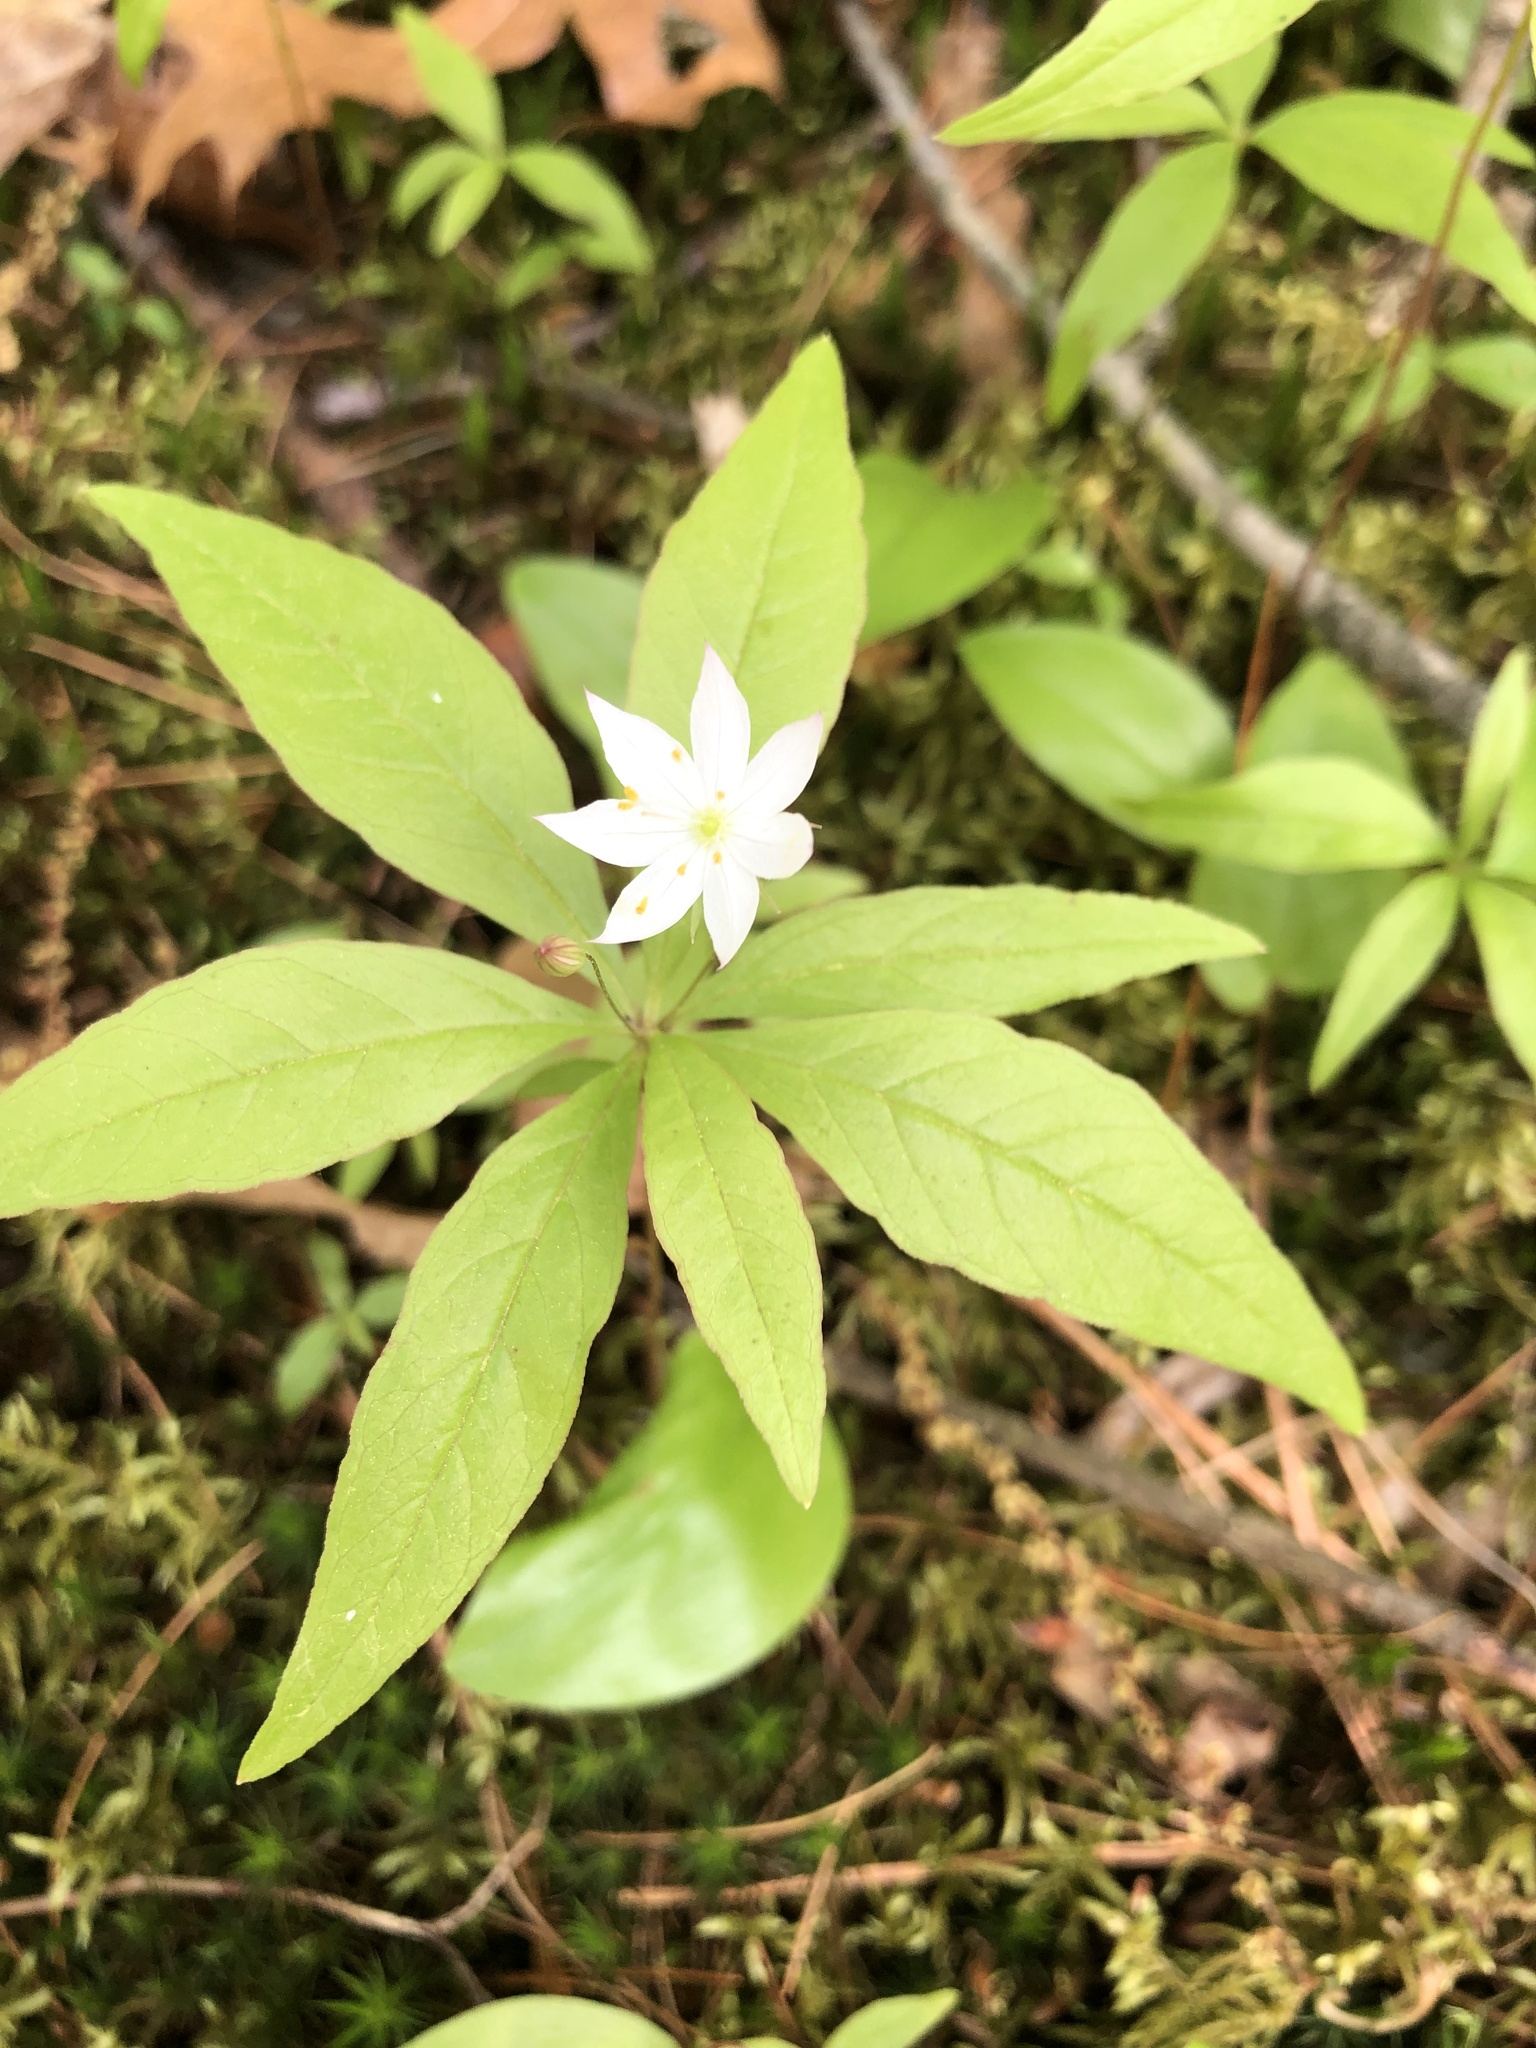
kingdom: Plantae
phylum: Tracheophyta
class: Magnoliopsida
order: Ericales
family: Primulaceae
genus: Lysimachia
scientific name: Lysimachia borealis
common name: American starflower
